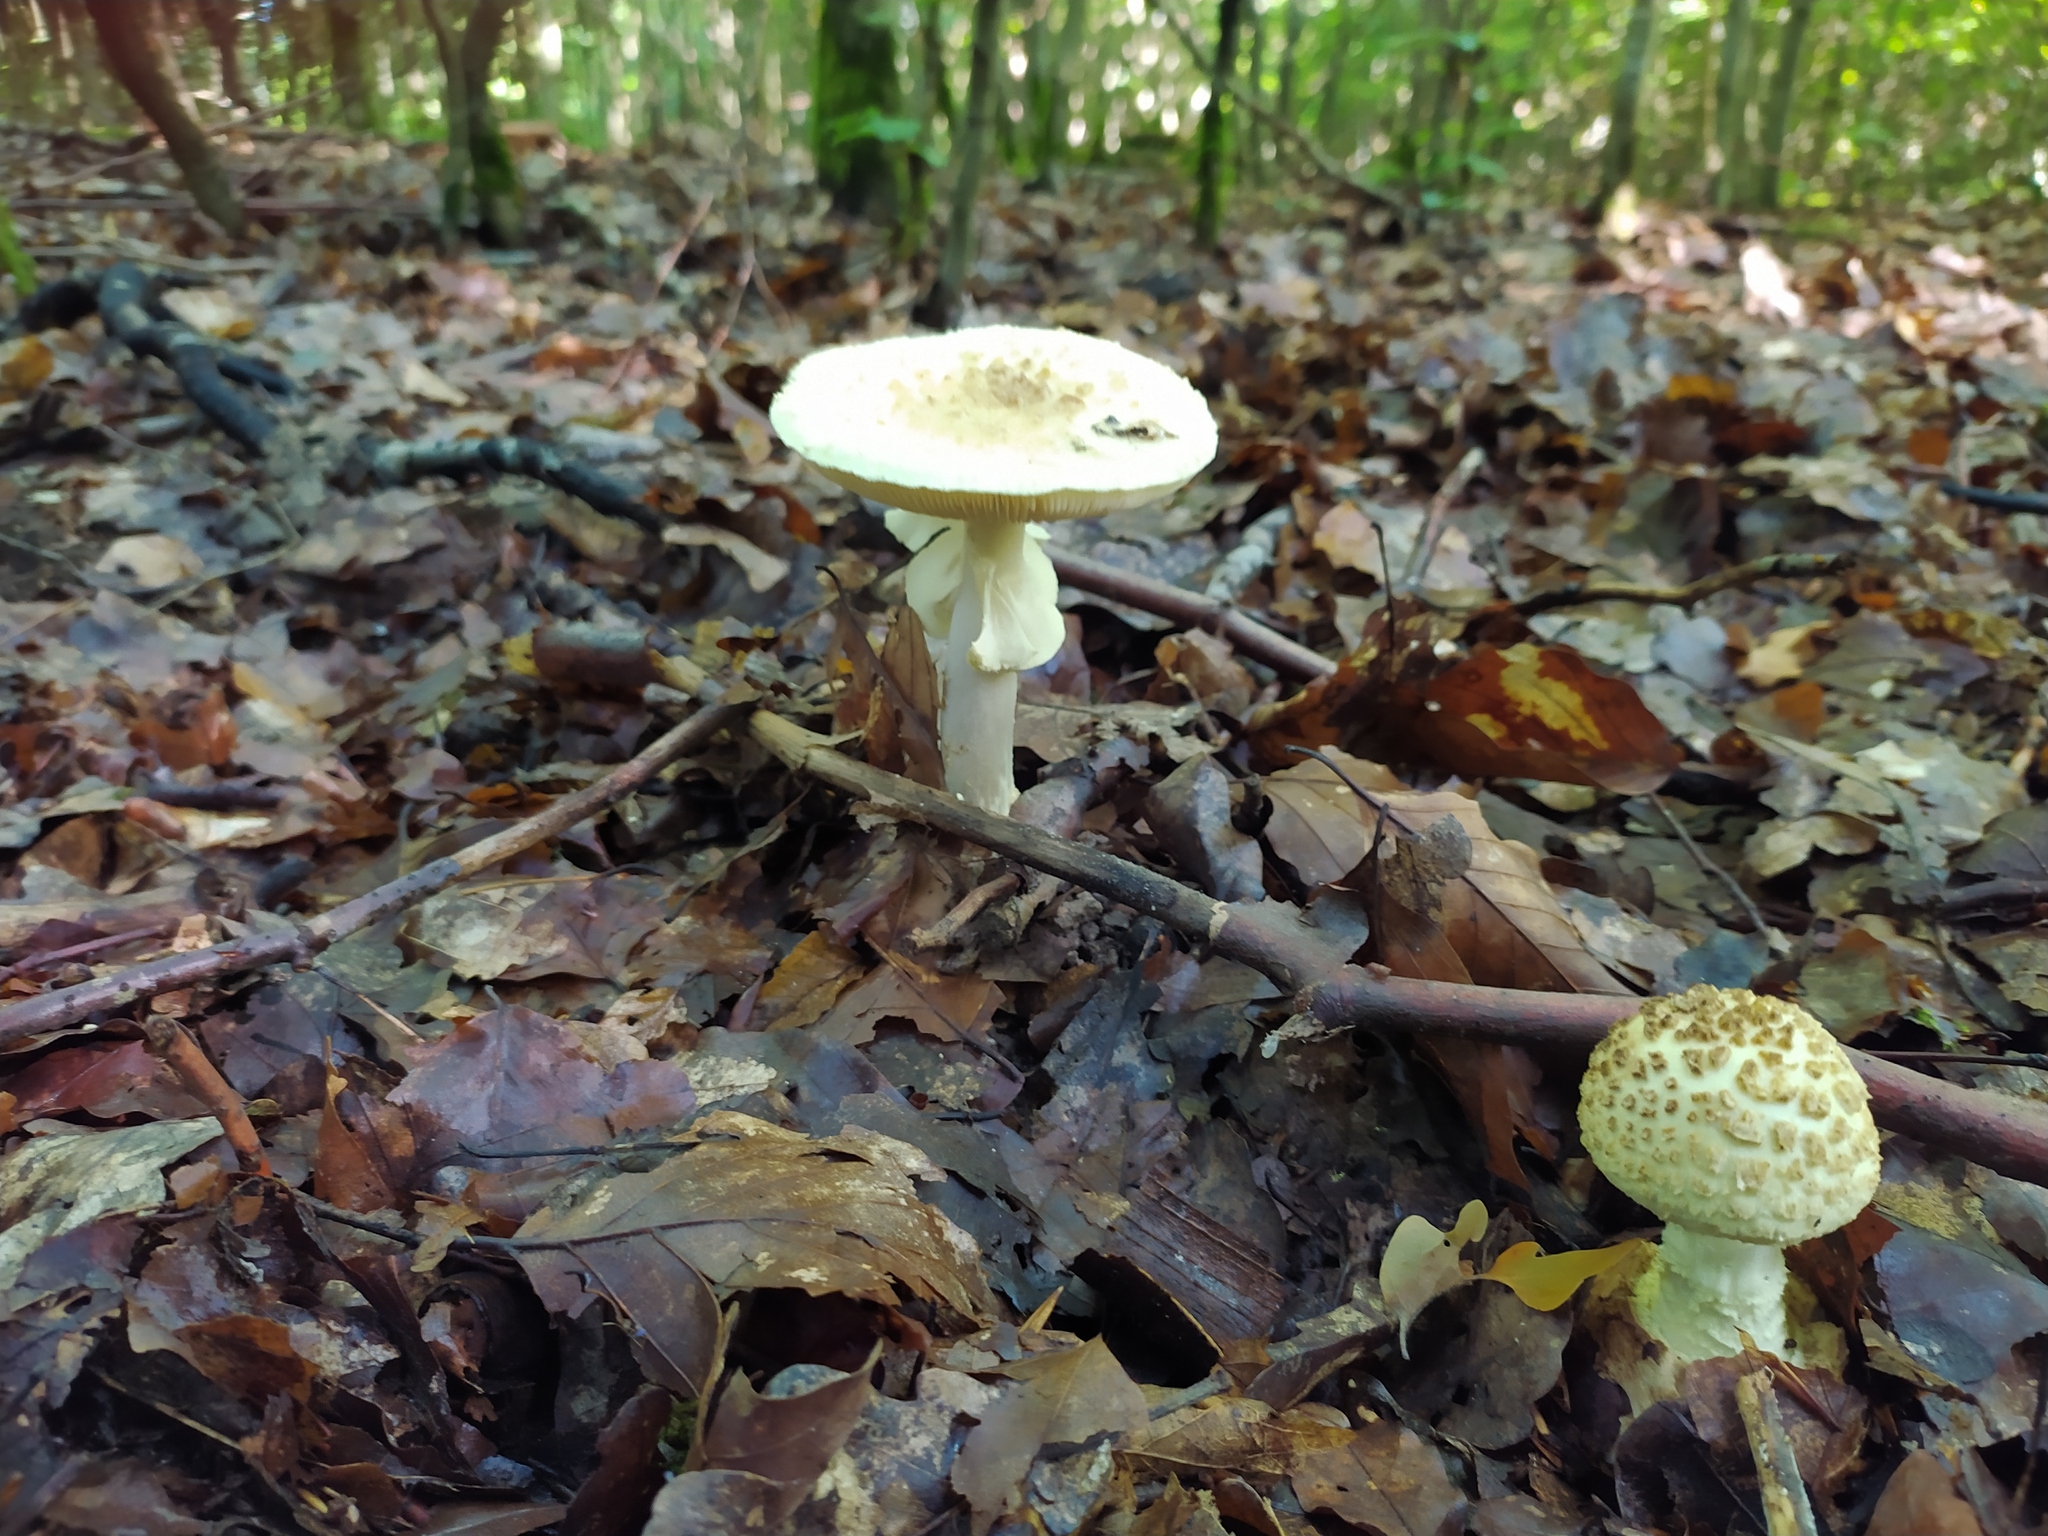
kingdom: Fungi
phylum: Basidiomycota
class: Agaricomycetes
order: Agaricales
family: Amanitaceae
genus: Amanita
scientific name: Amanita citrina
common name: False death-cap
